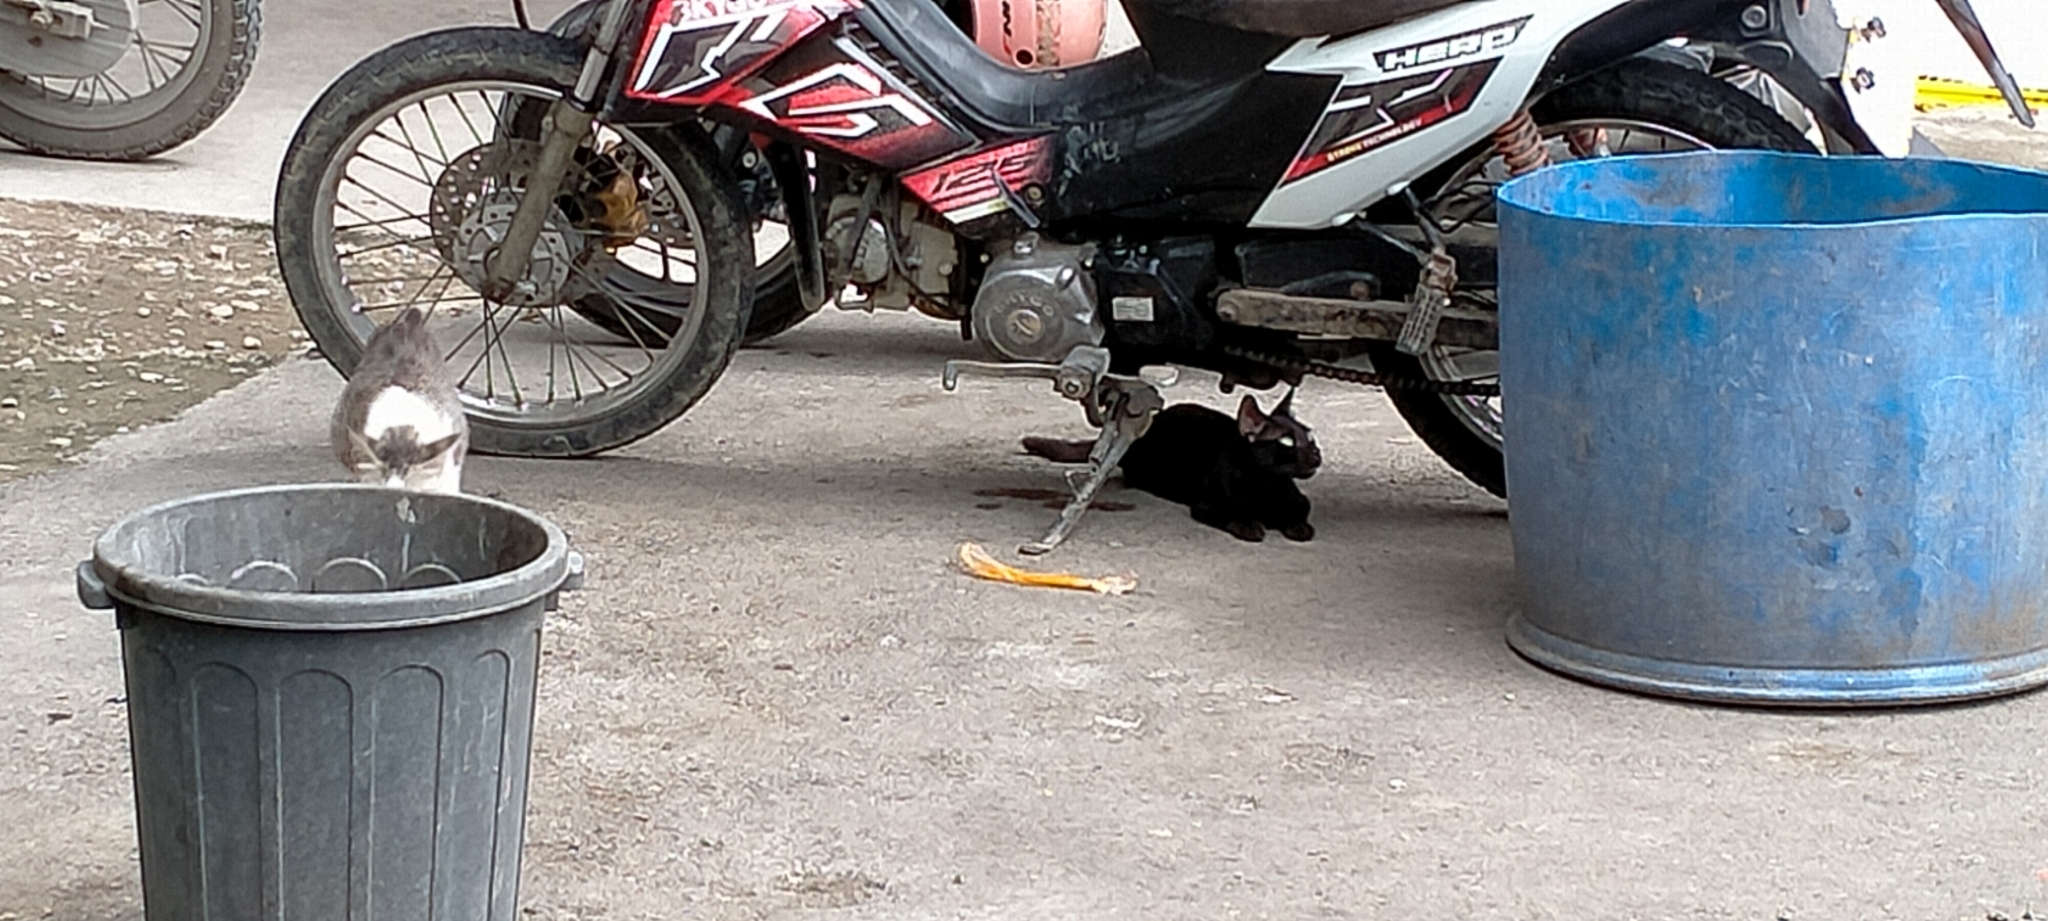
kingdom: Animalia
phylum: Chordata
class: Mammalia
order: Carnivora
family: Felidae
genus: Felis
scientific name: Felis catus
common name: Domestic cat
